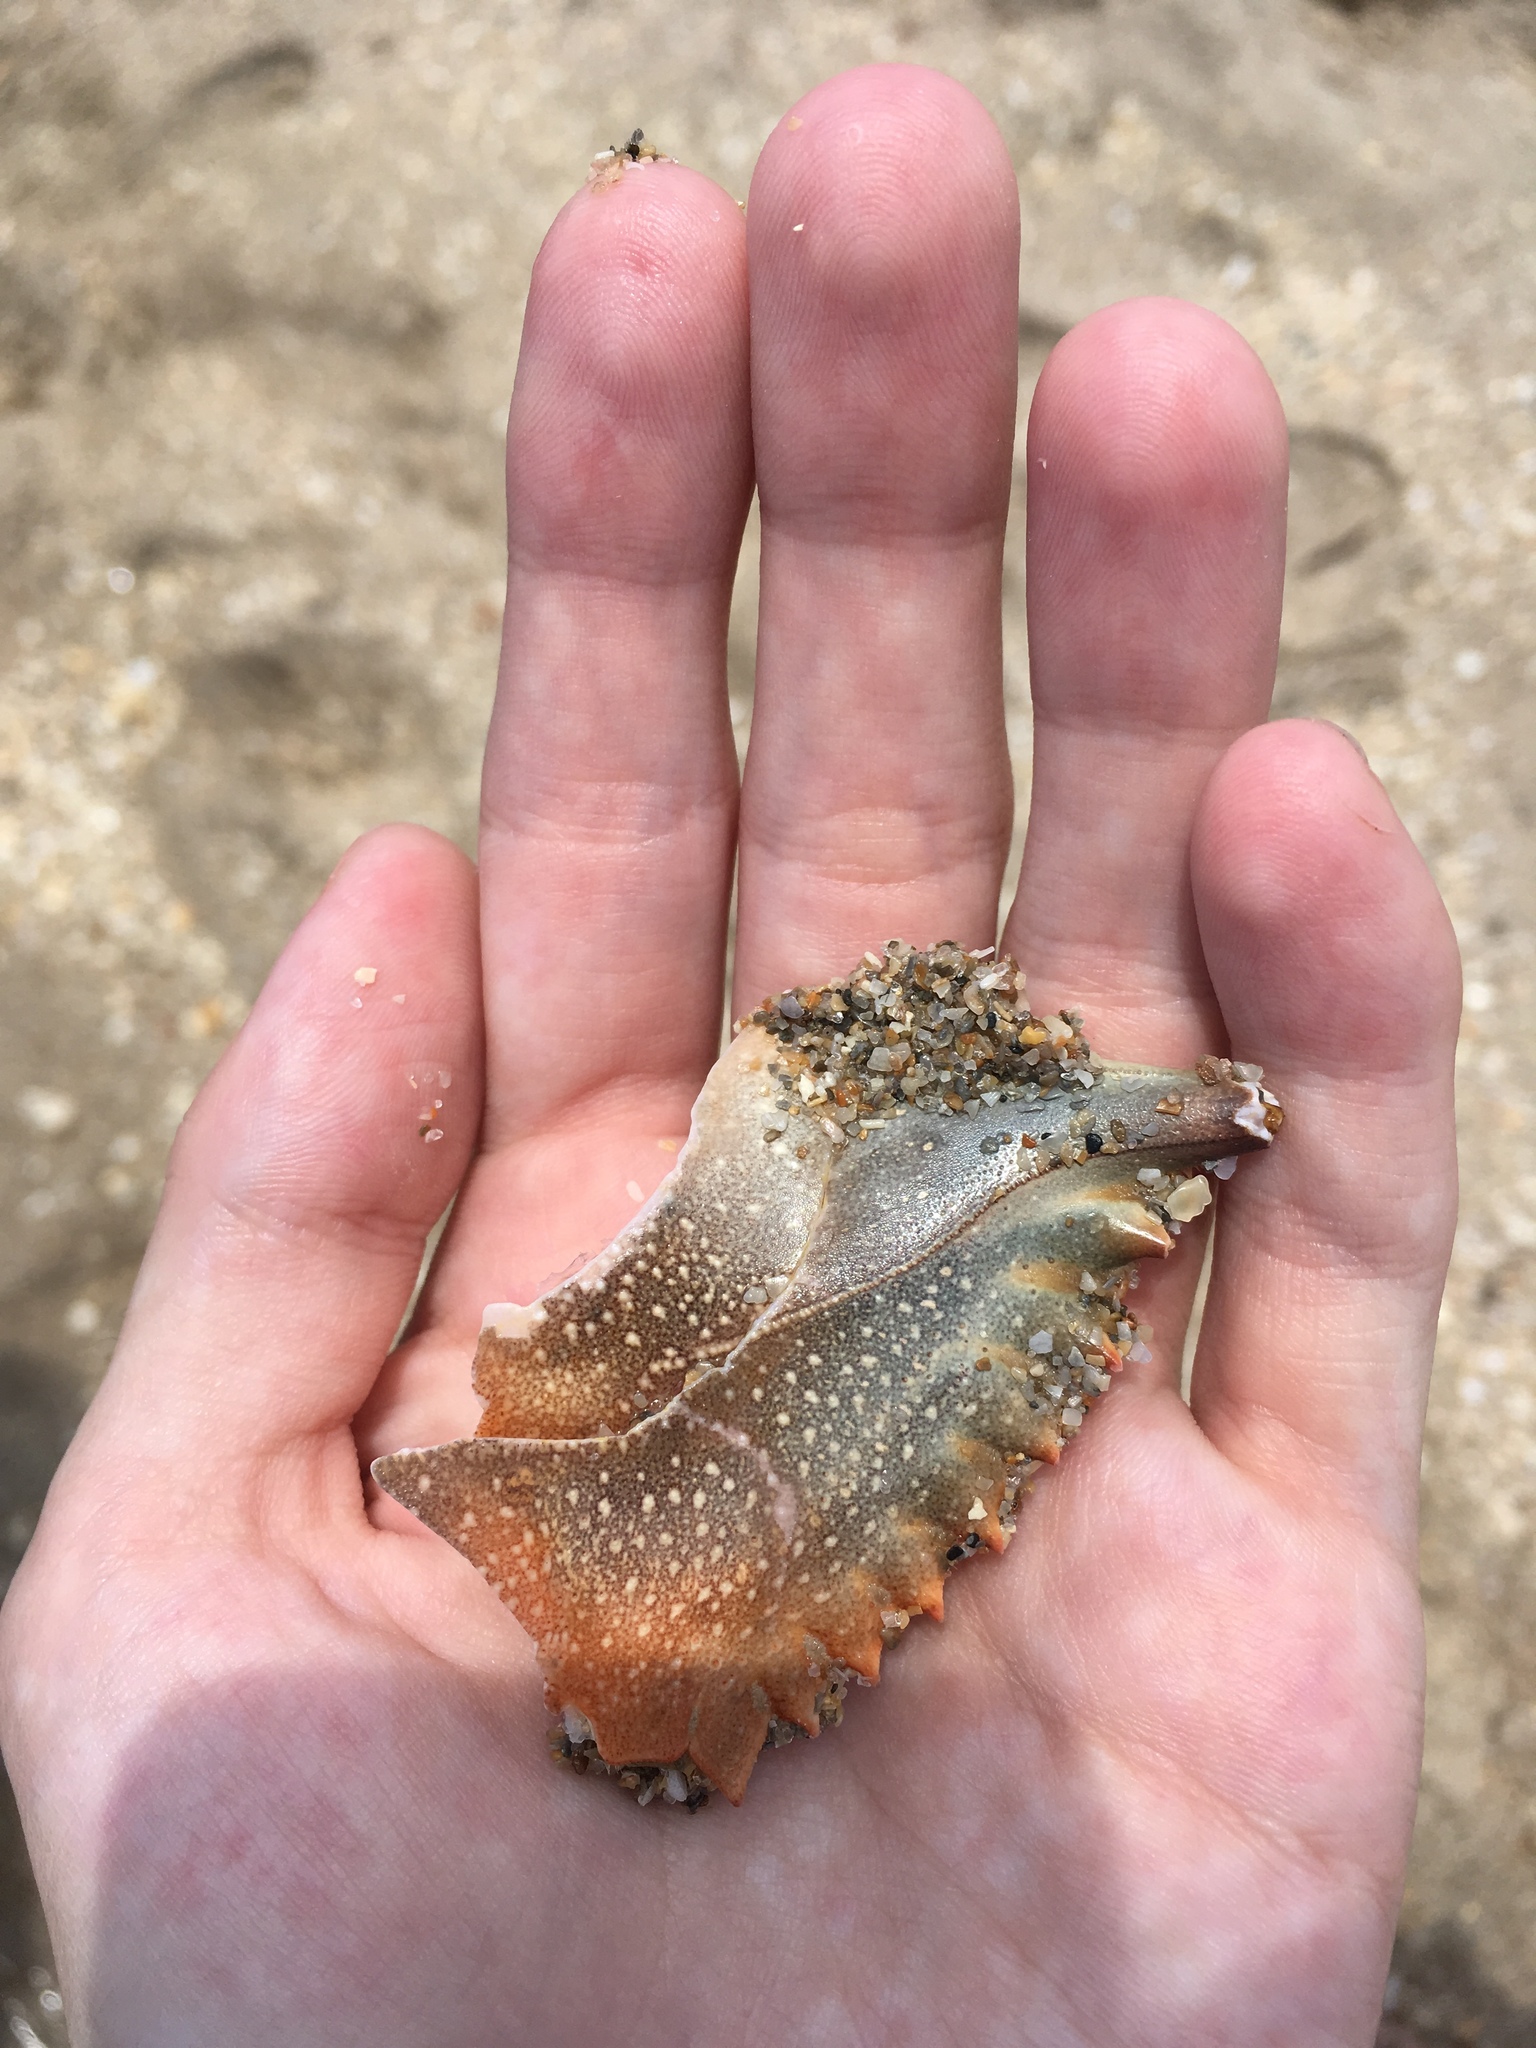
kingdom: Animalia
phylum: Arthropoda
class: Malacostraca
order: Decapoda
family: Portunidae
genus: Callinectes
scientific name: Callinectes sapidus
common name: Blue crab
